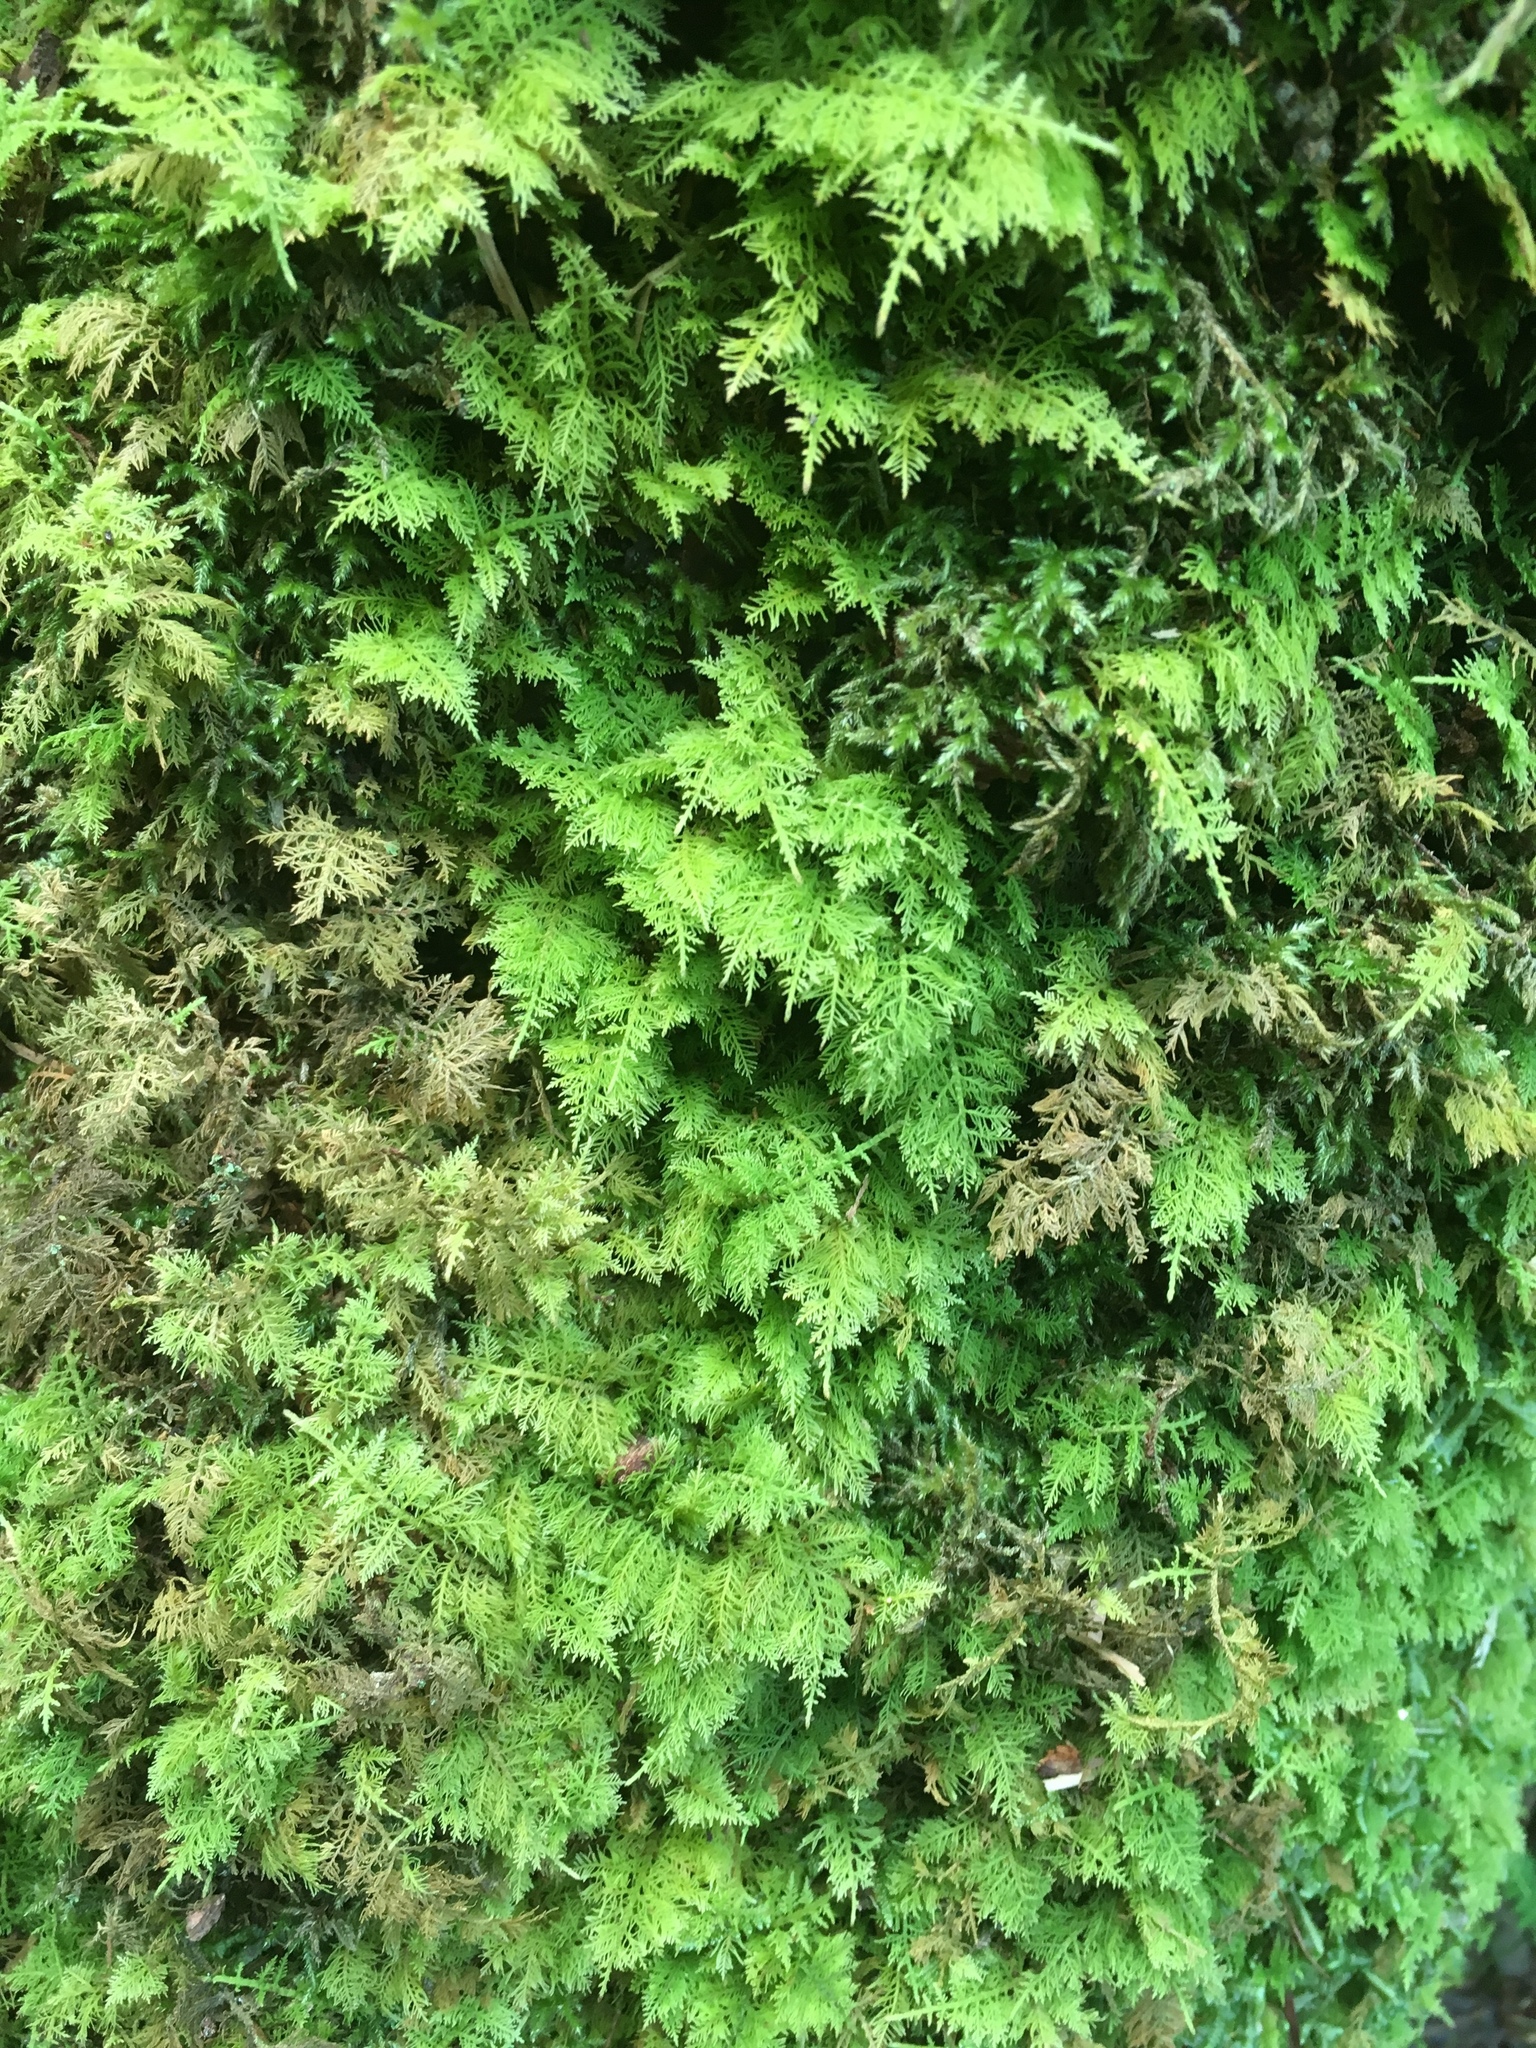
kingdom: Plantae
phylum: Bryophyta
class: Bryopsida
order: Hypnales
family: Thuidiaceae
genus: Thuidium
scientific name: Thuidium delicatulum
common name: Delicate fern moss
